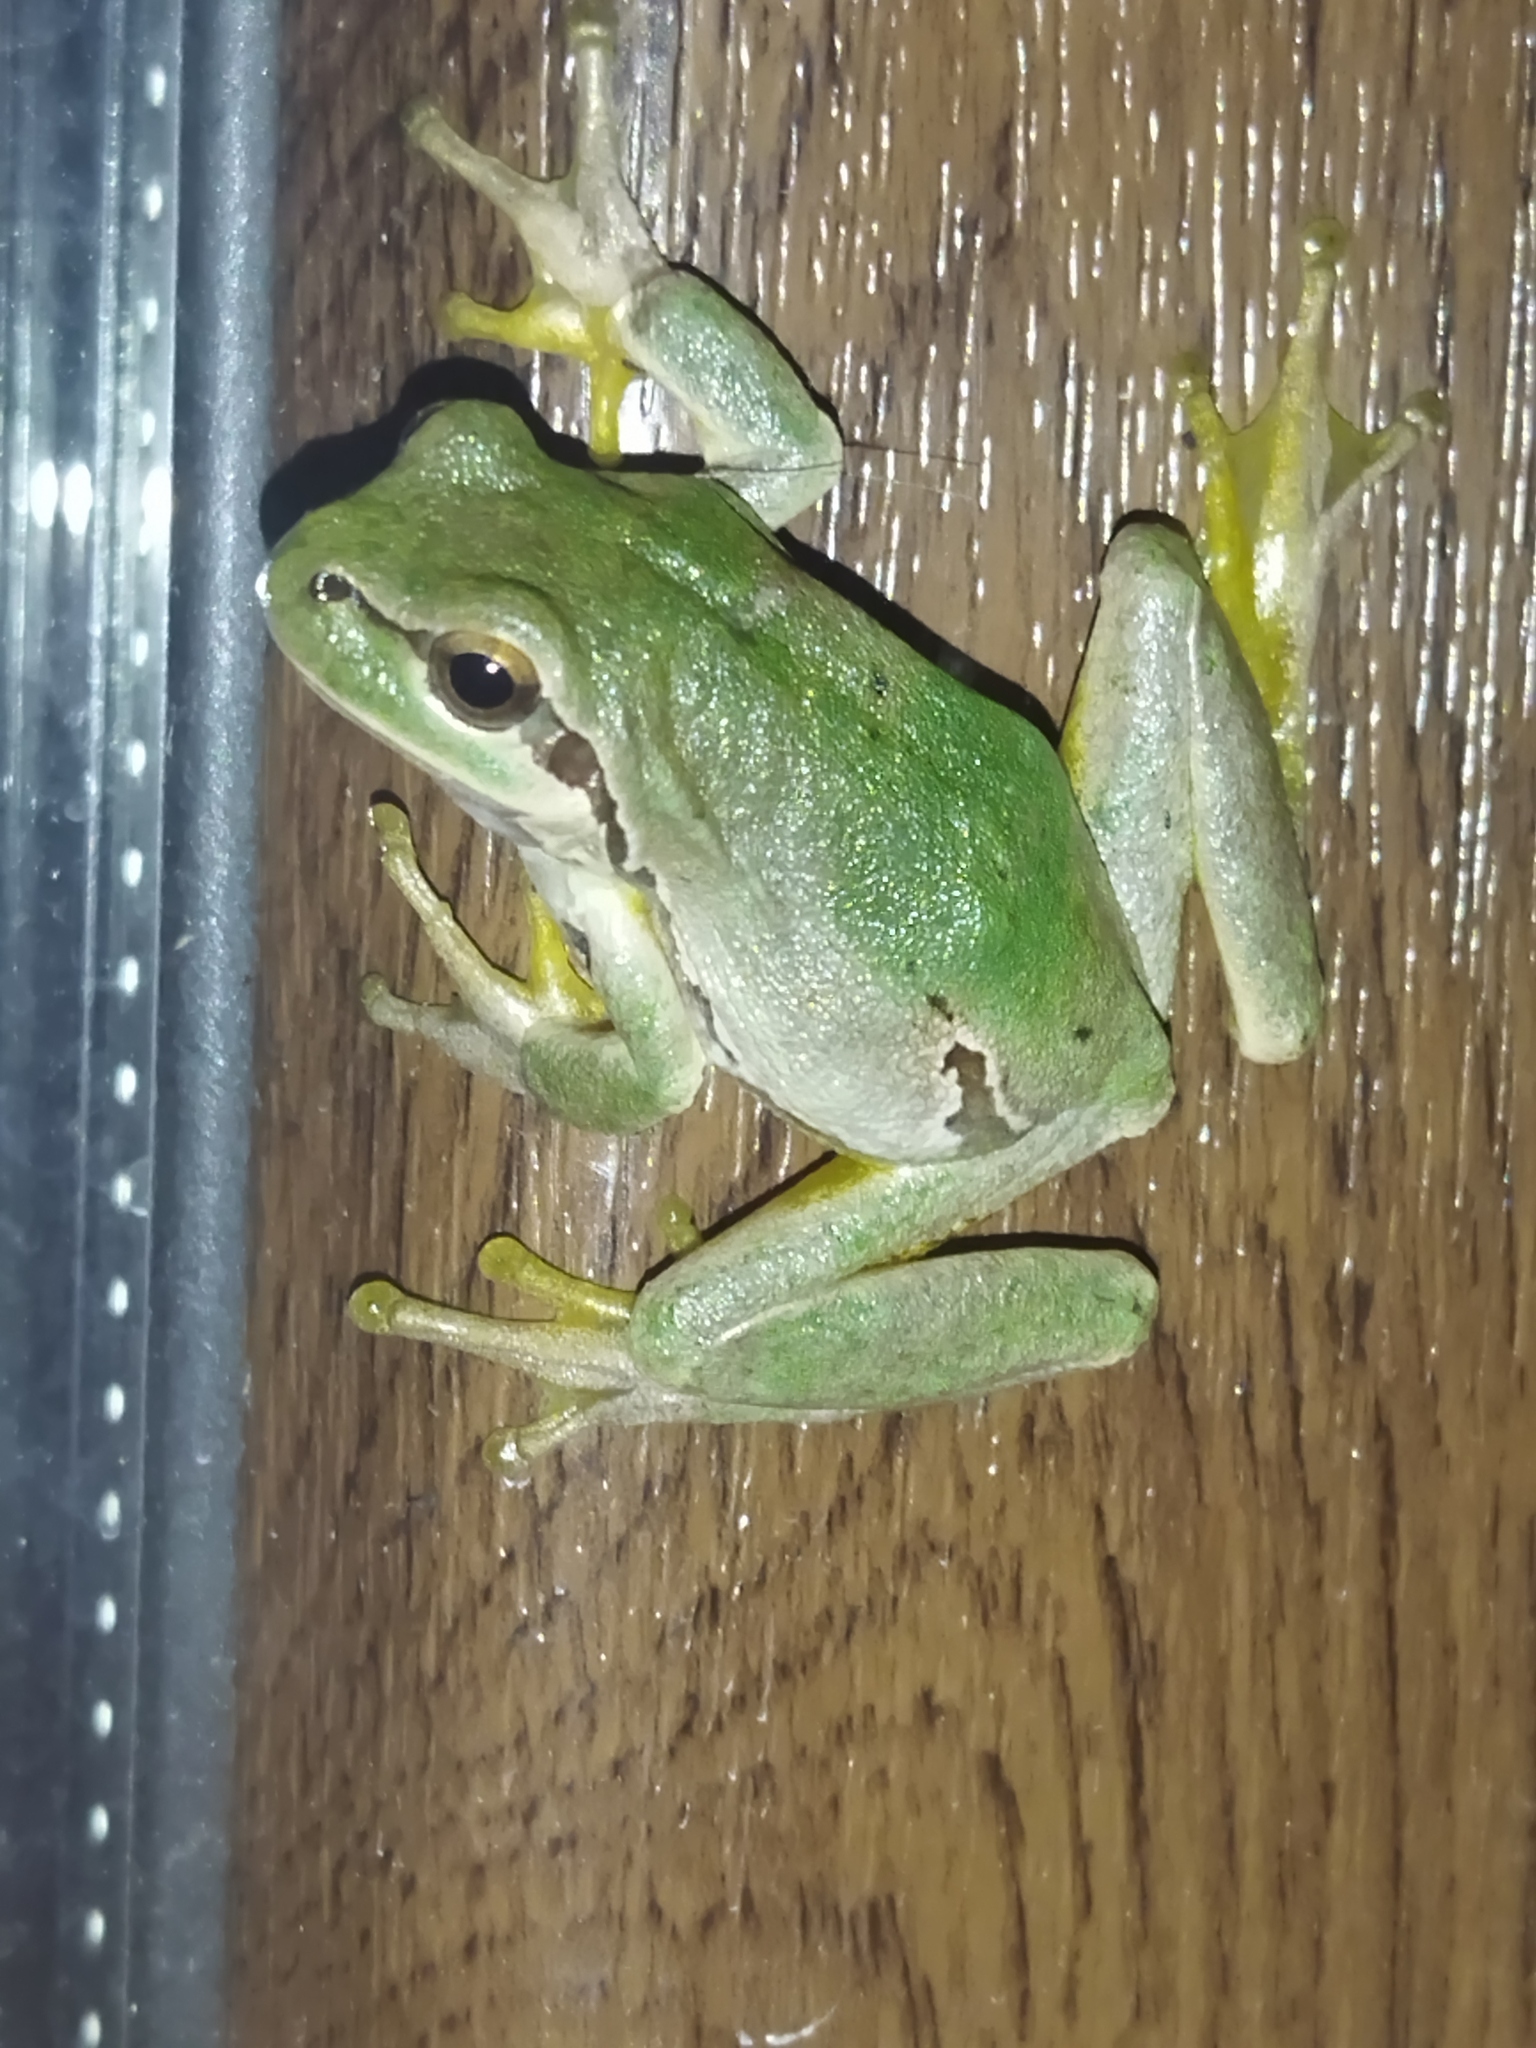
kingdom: Animalia
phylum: Chordata
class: Amphibia
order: Anura
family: Hylidae
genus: Hyla
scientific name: Hyla orientalis
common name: Caucasian treefrog
